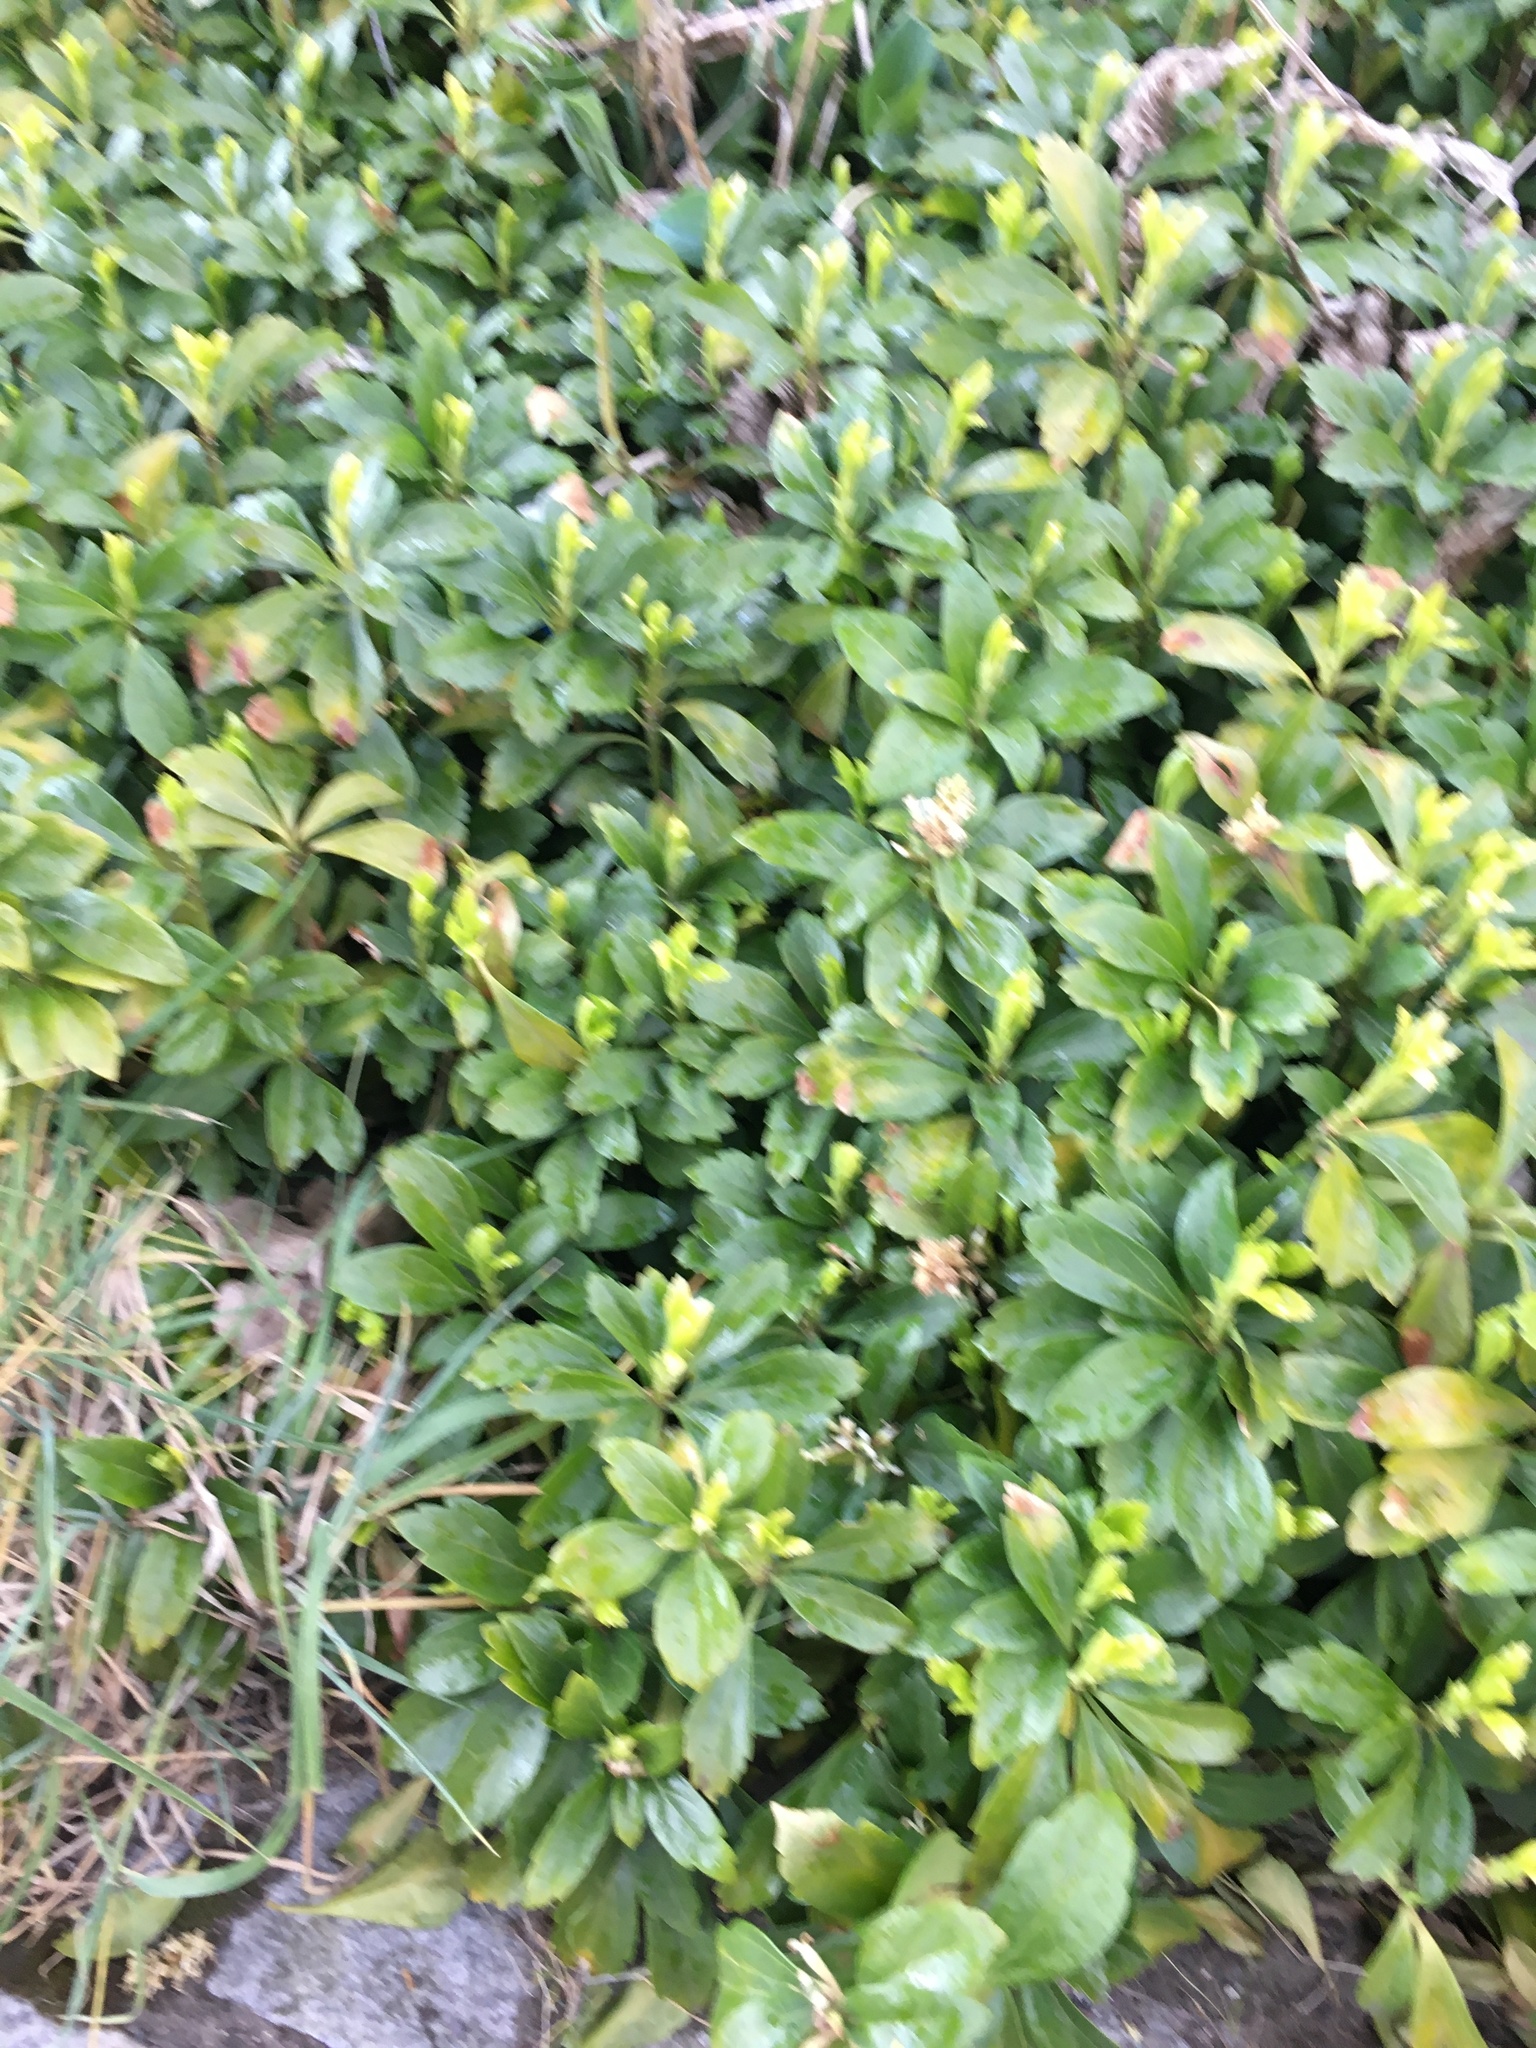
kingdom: Plantae
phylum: Tracheophyta
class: Magnoliopsida
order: Buxales
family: Buxaceae
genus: Pachysandra
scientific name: Pachysandra terminalis
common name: Japanese pachysandra
